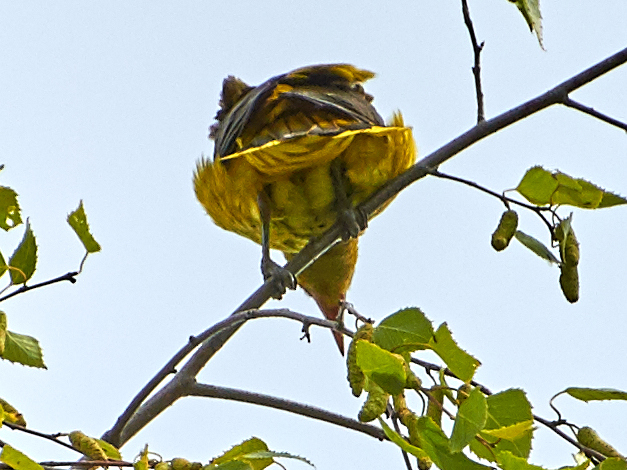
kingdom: Animalia
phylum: Chordata
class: Aves
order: Passeriformes
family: Oriolidae
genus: Oriolus
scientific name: Oriolus oriolus
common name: Eurasian golden oriole
